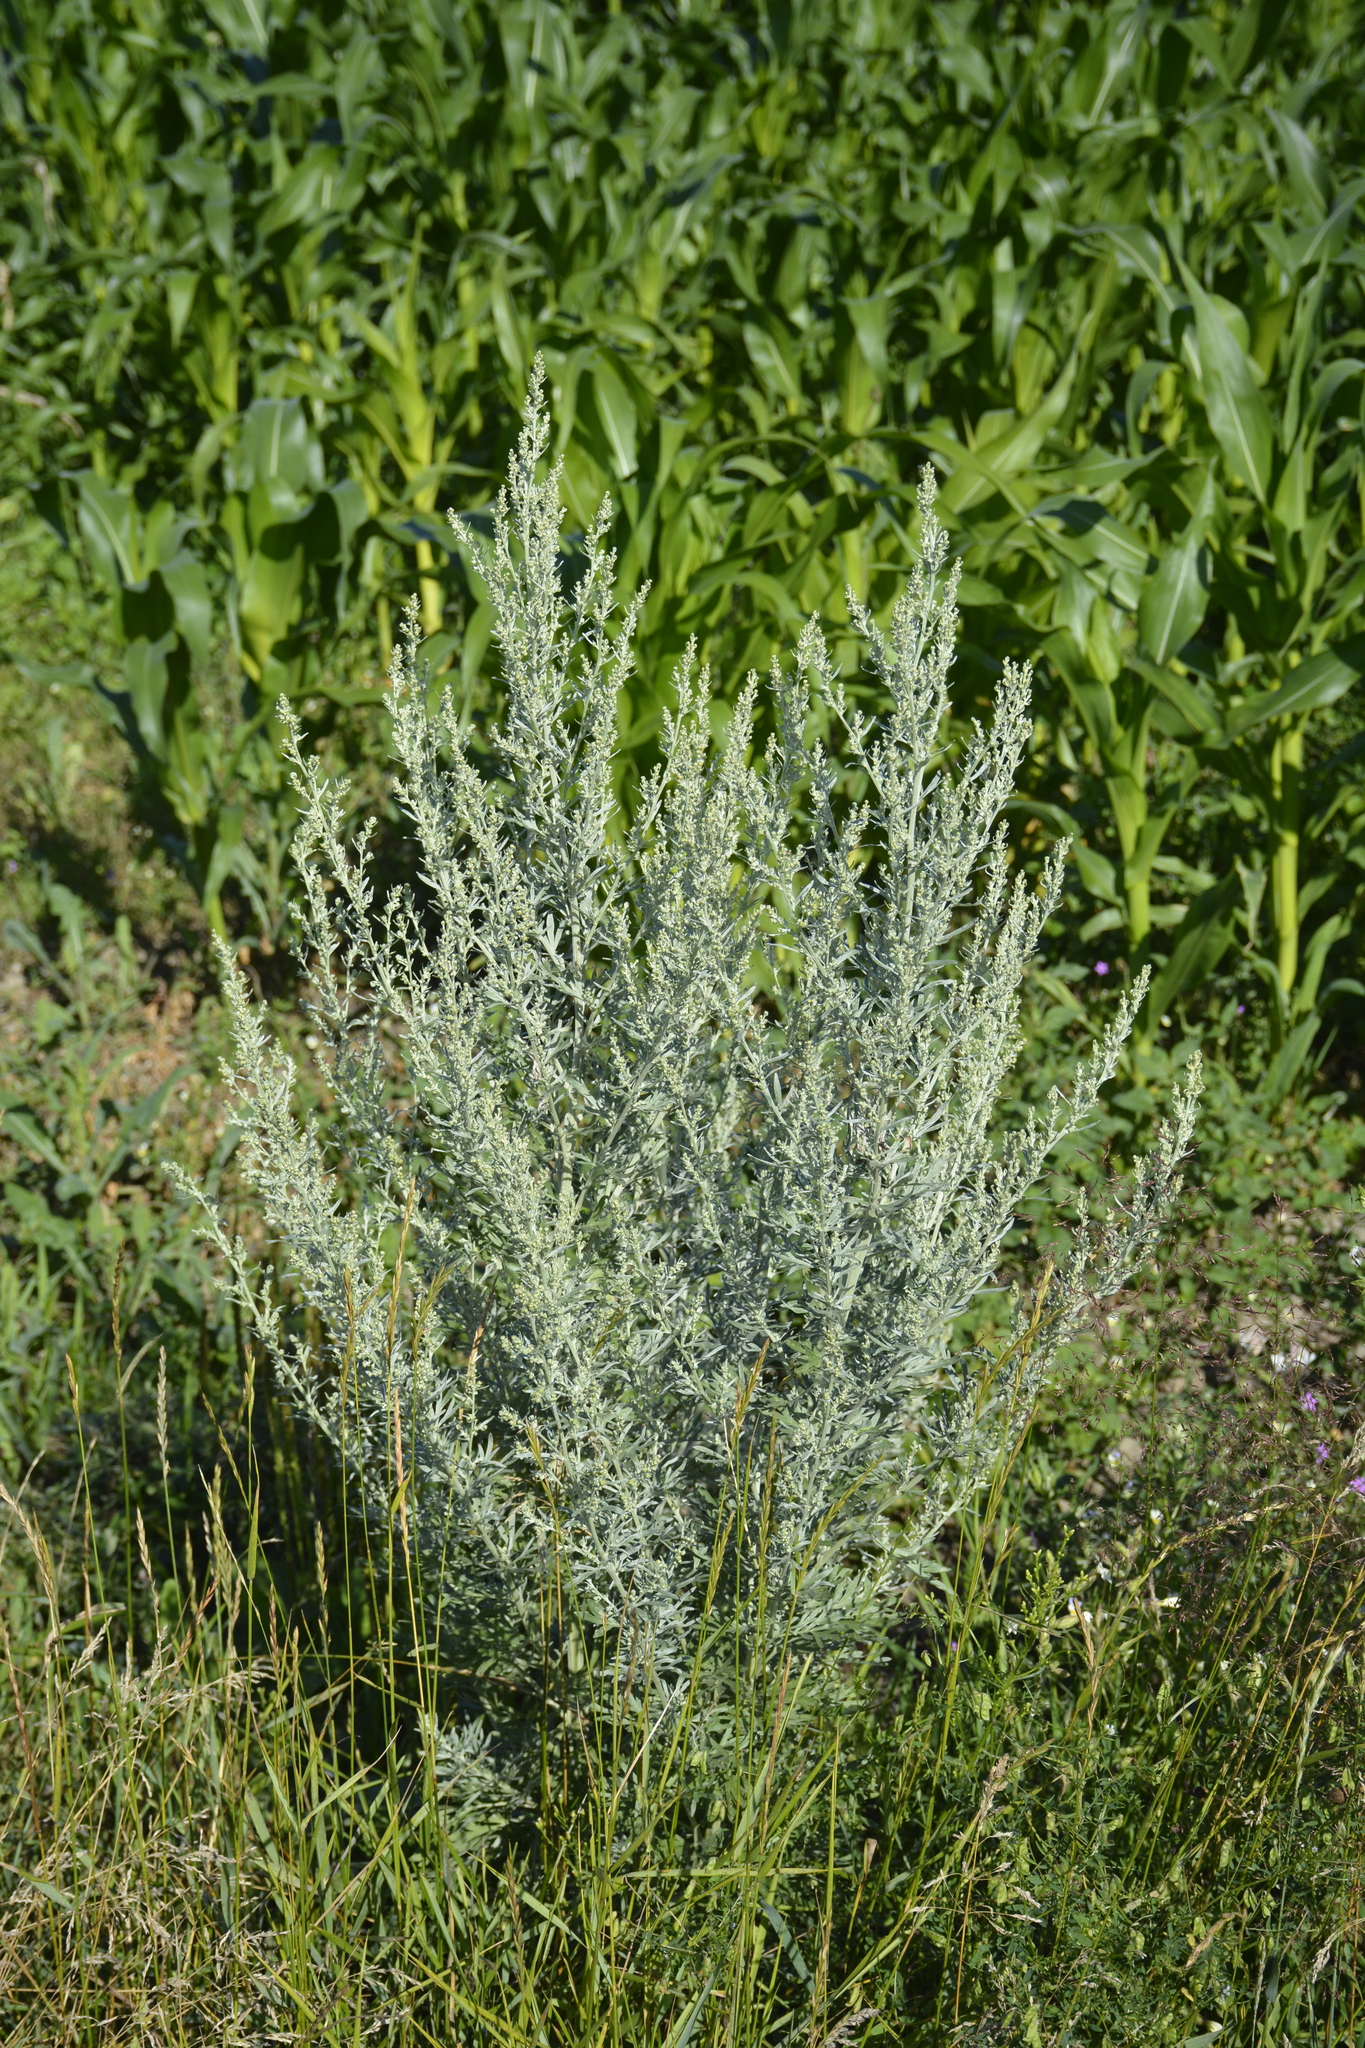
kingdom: Plantae
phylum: Tracheophyta
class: Magnoliopsida
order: Asterales
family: Asteraceae
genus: Artemisia
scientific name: Artemisia absinthium
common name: Wormwood
